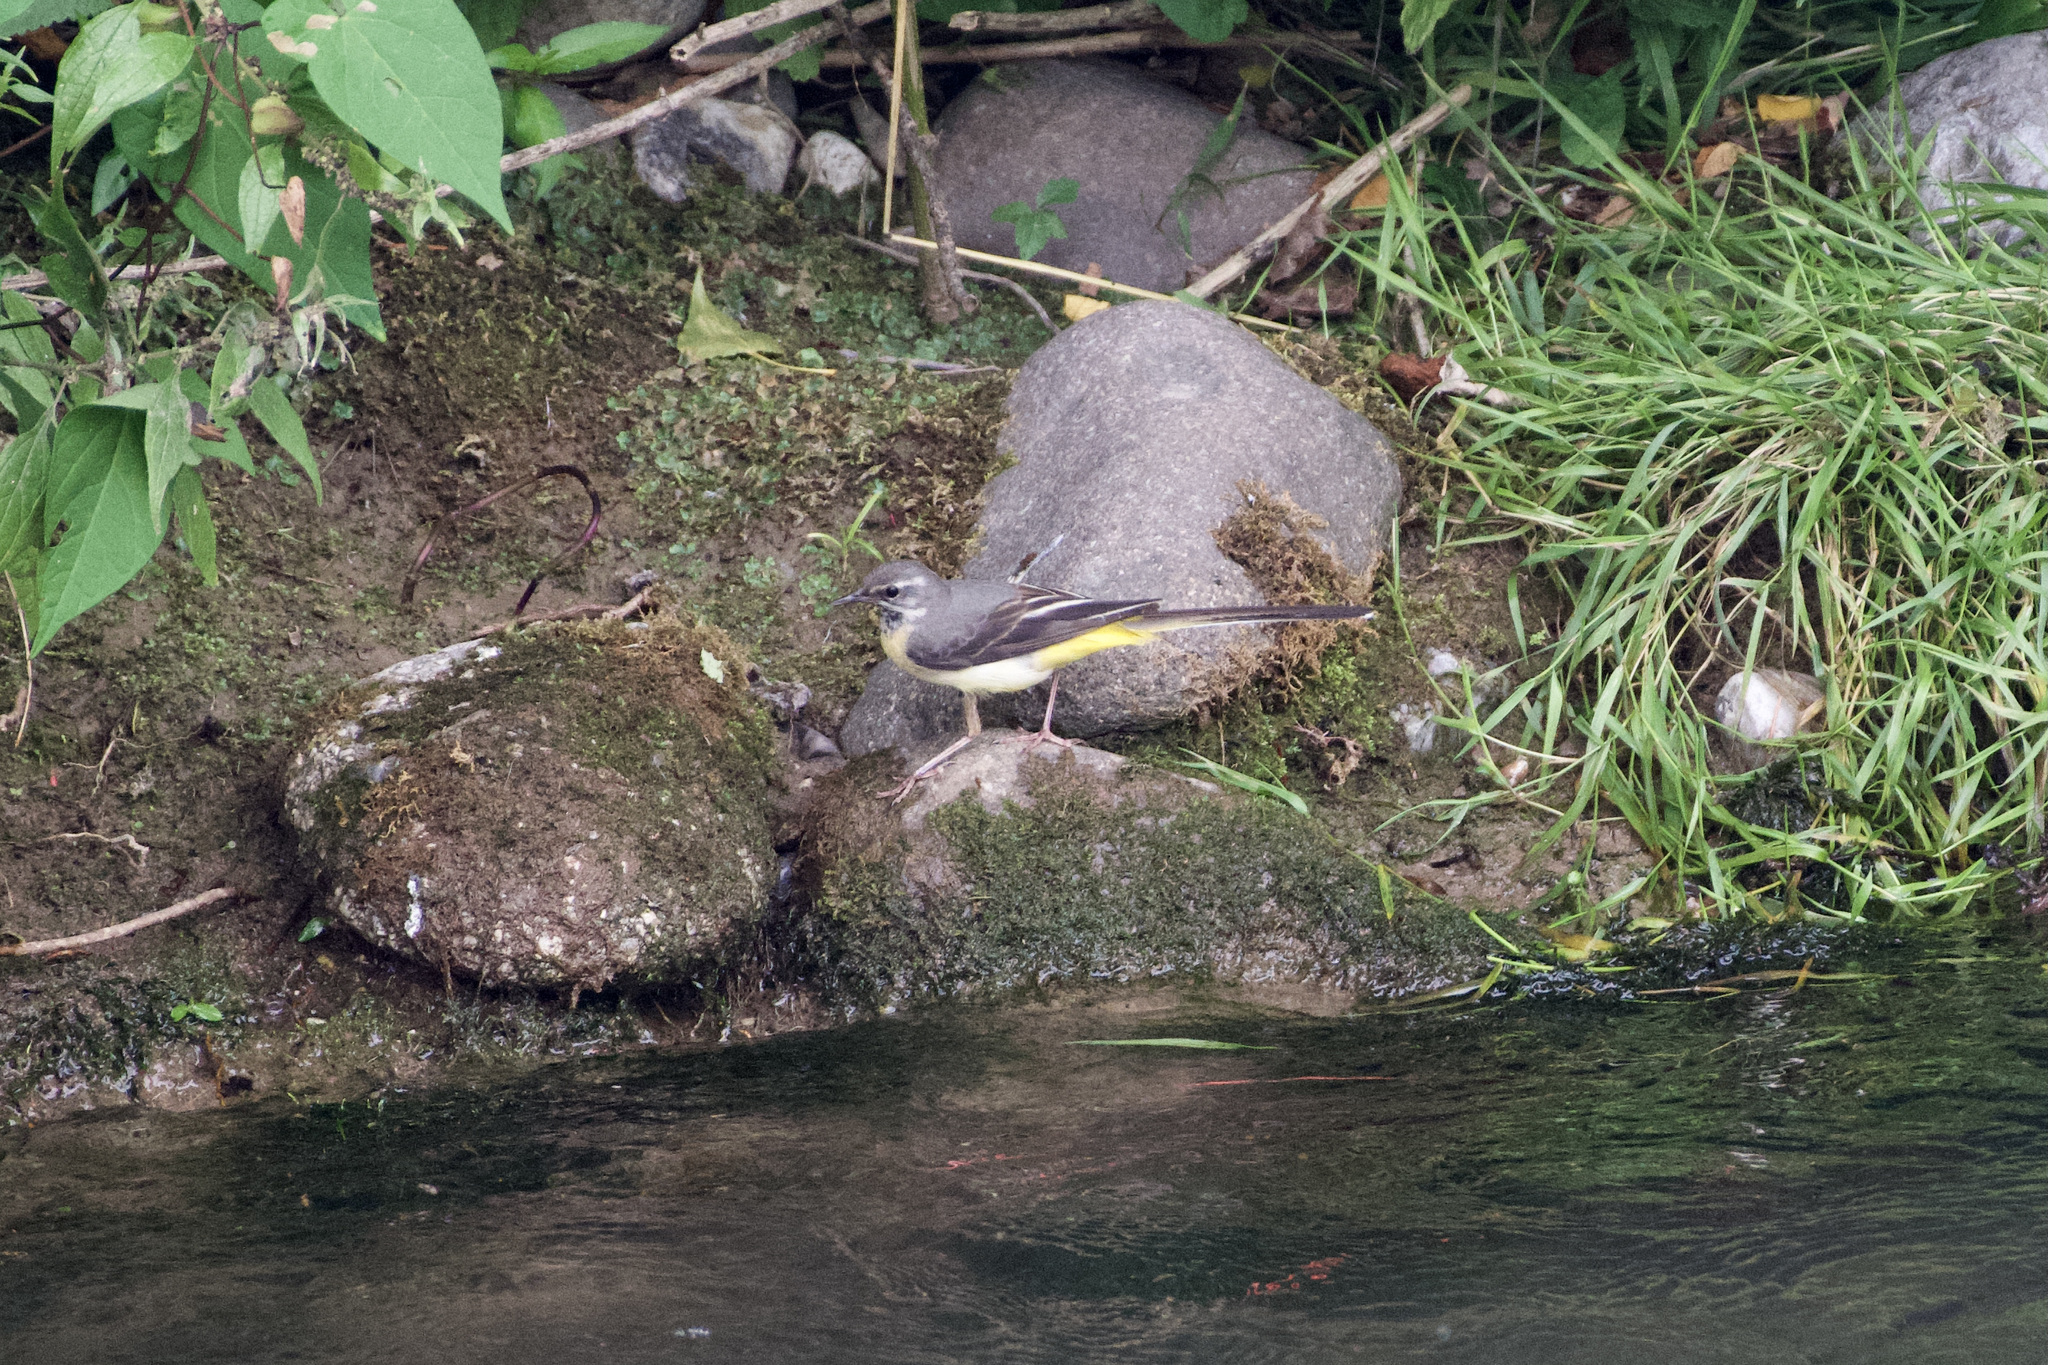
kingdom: Animalia
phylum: Chordata
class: Aves
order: Passeriformes
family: Motacillidae
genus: Motacilla
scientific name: Motacilla cinerea
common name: Grey wagtail
